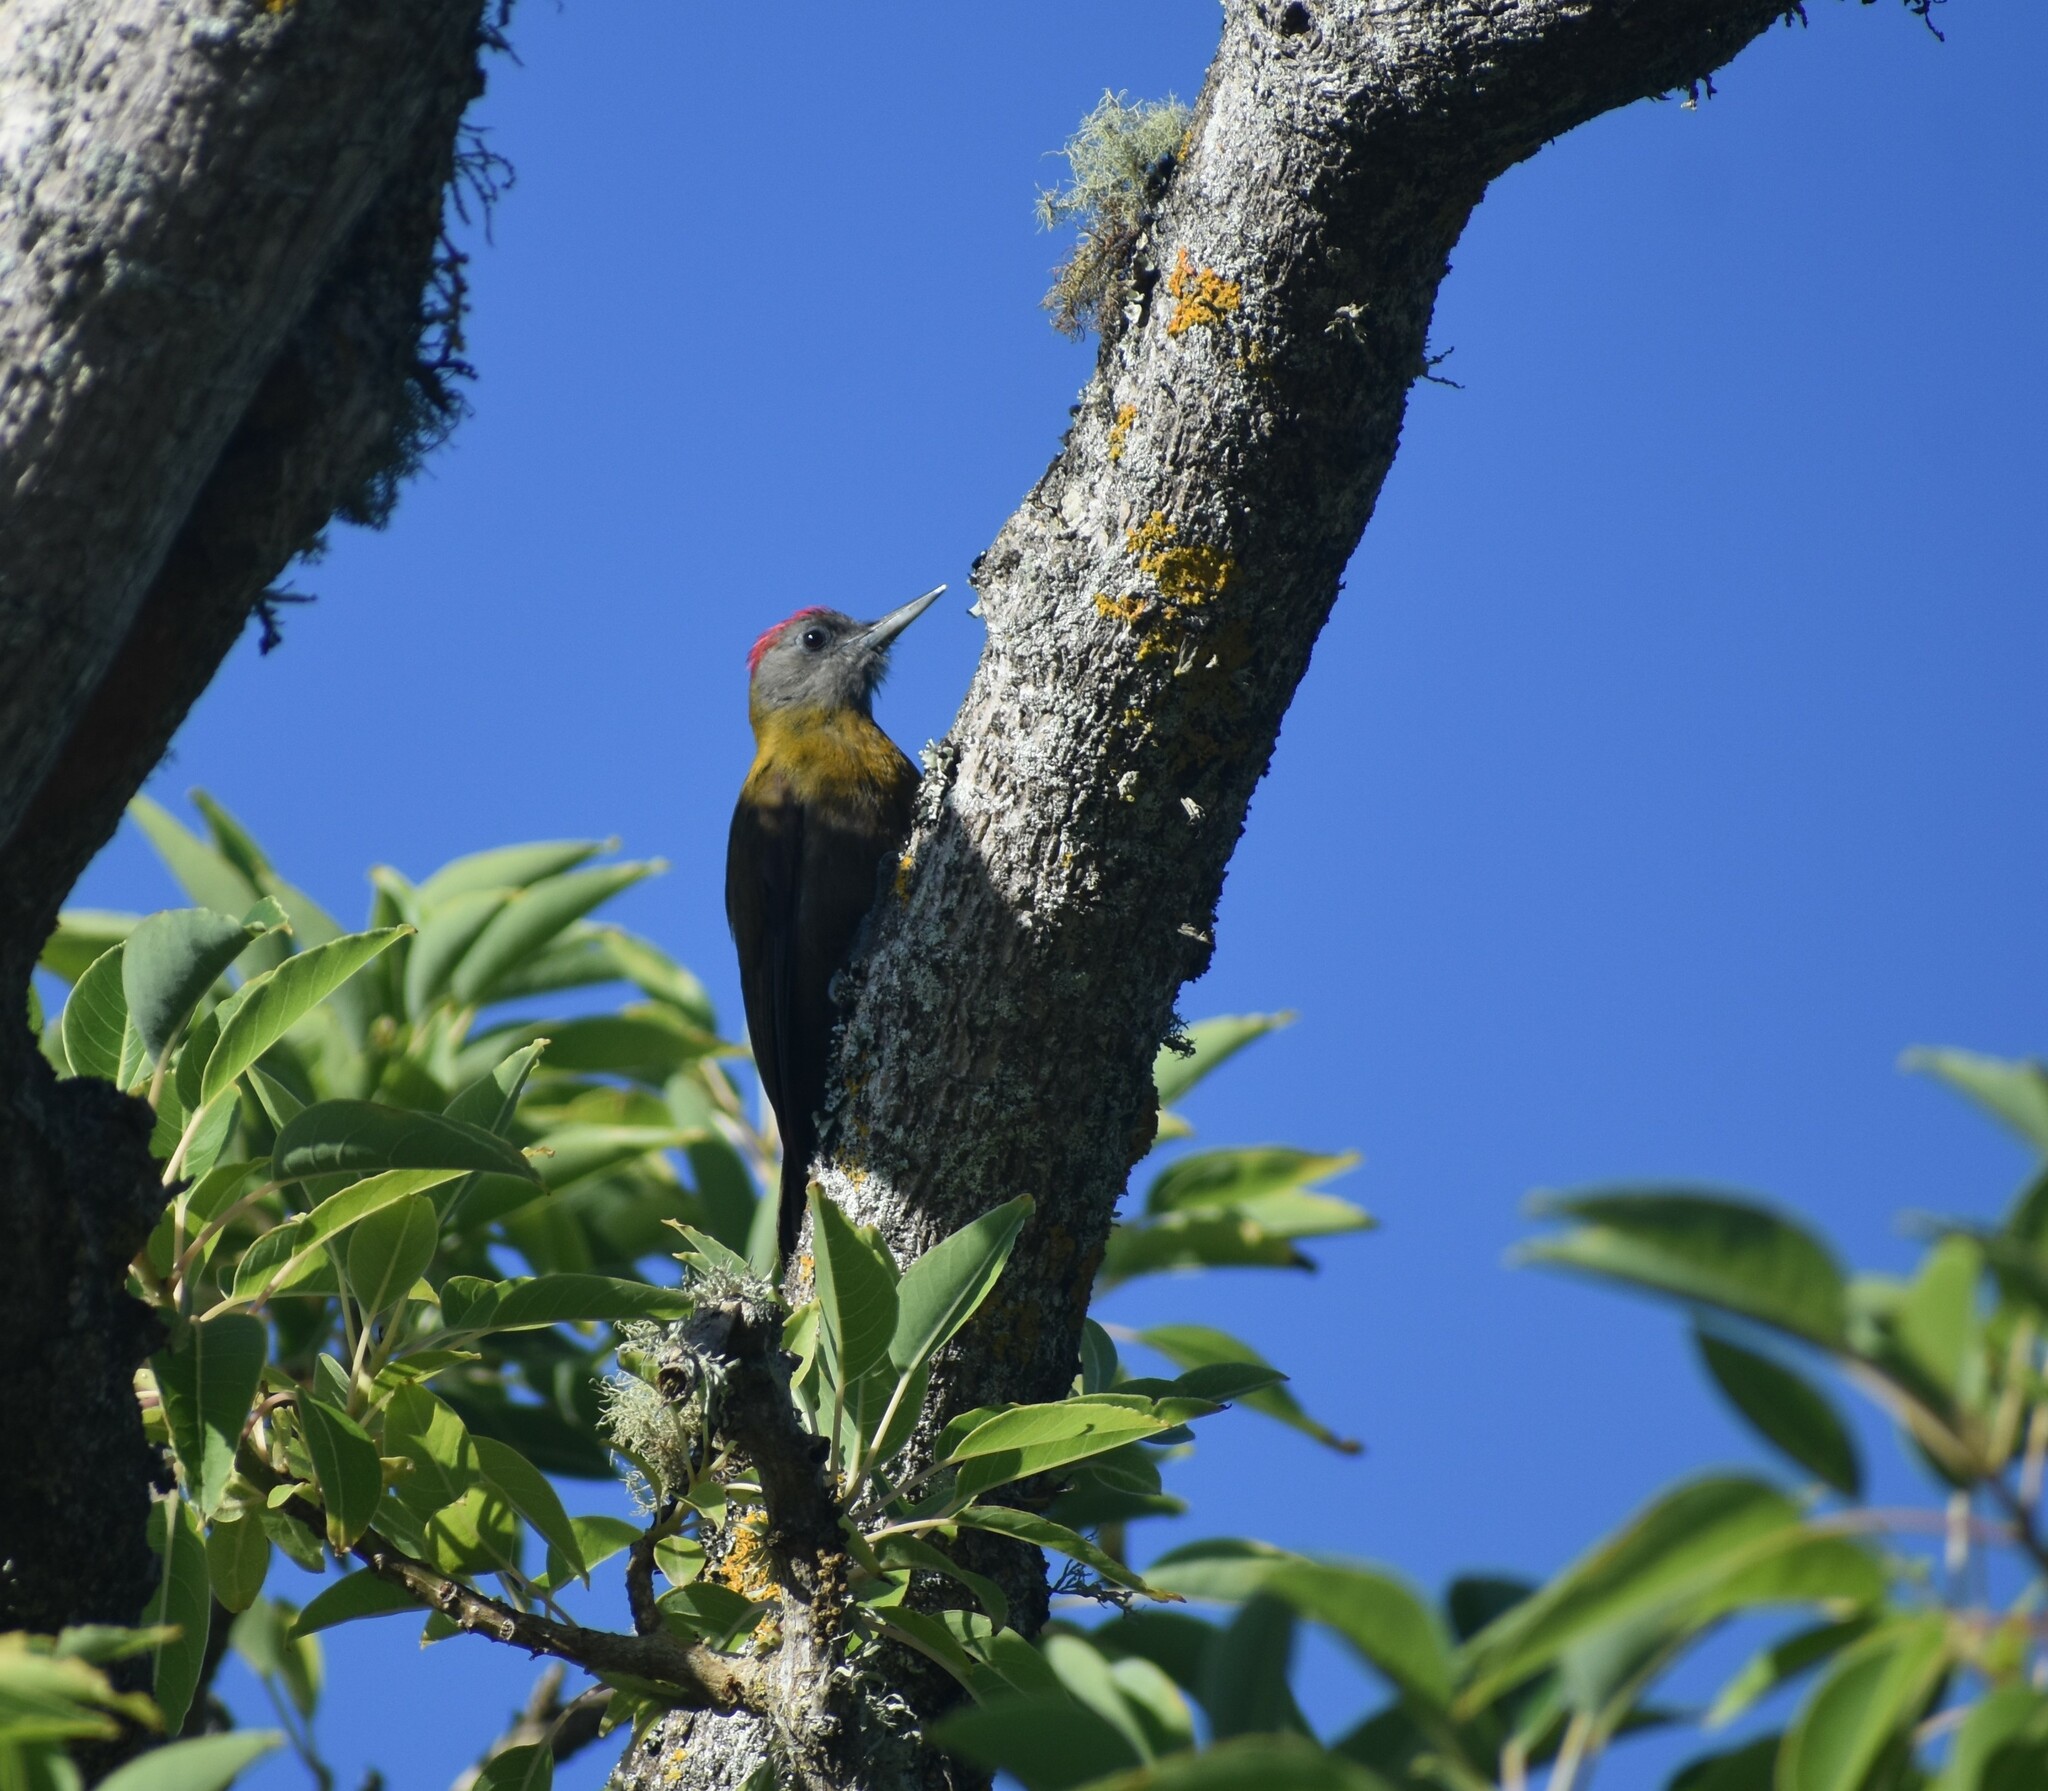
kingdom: Animalia
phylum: Chordata
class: Aves
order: Piciformes
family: Picidae
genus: Dendropicos
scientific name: Dendropicos griseocephalus
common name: Olive woodpecker
